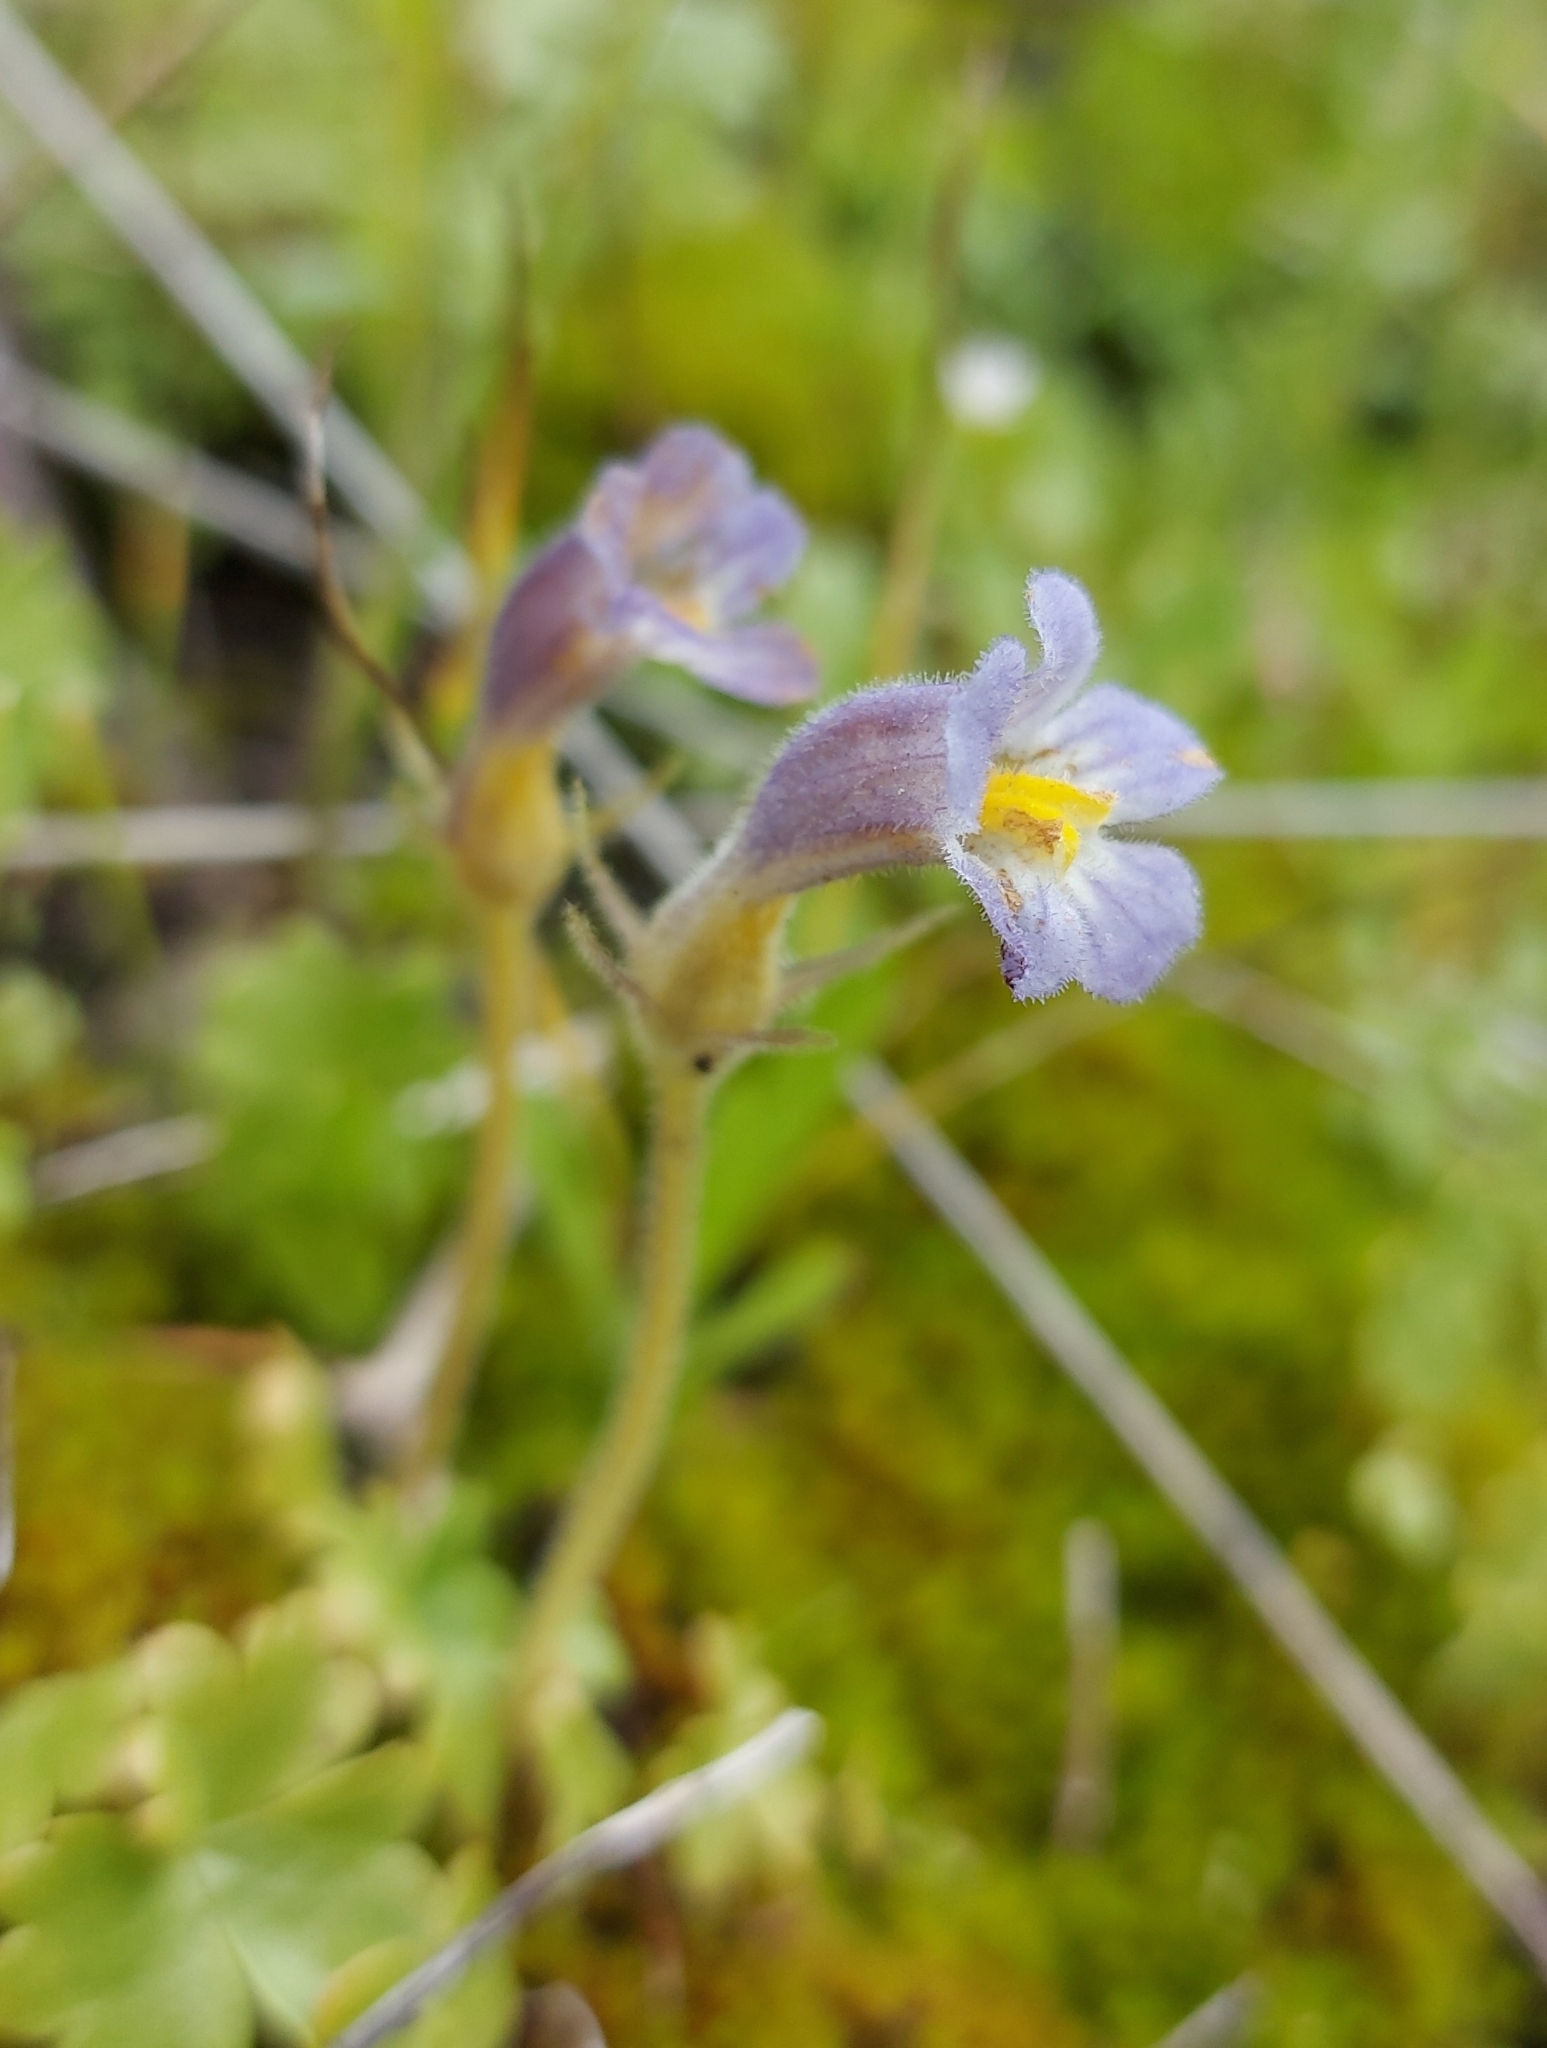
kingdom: Plantae
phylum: Tracheophyta
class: Magnoliopsida
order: Lamiales
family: Orobanchaceae
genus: Aphyllon
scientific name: Aphyllon uniflorum
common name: One-flowered broomrape
